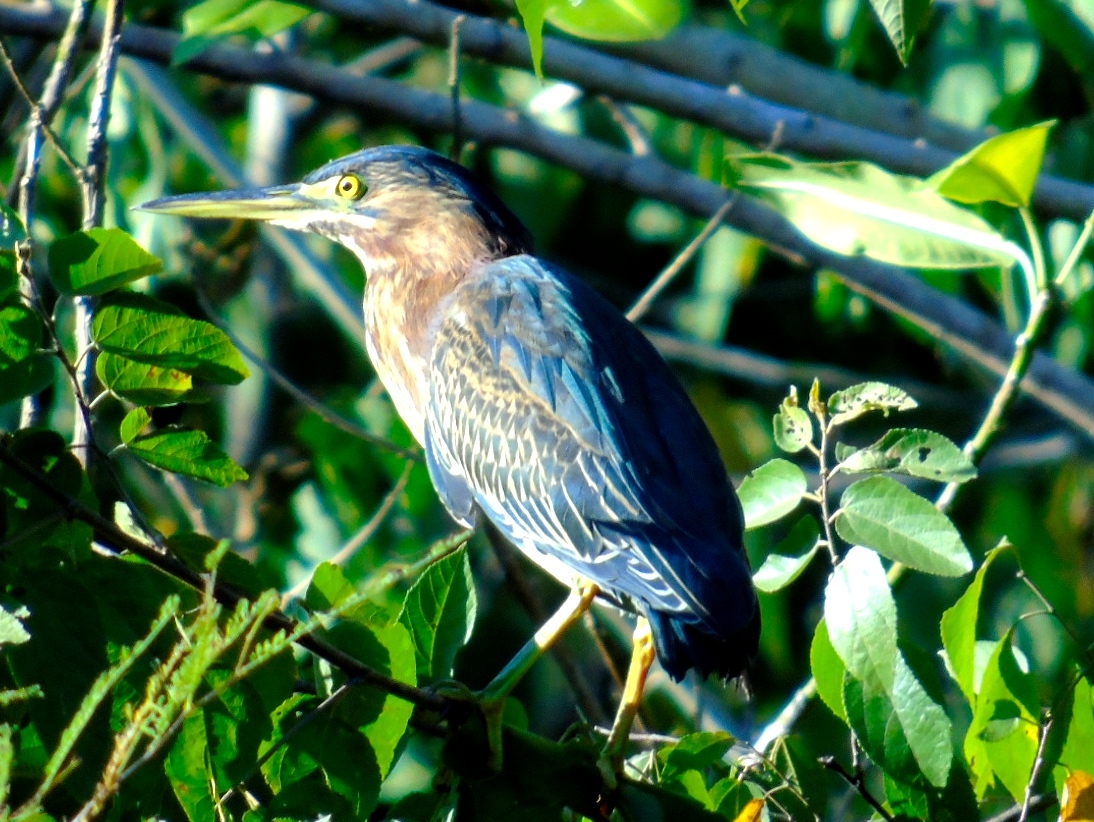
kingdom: Animalia
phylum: Chordata
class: Aves
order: Pelecaniformes
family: Ardeidae
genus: Butorides
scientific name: Butorides virescens
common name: Green heron
